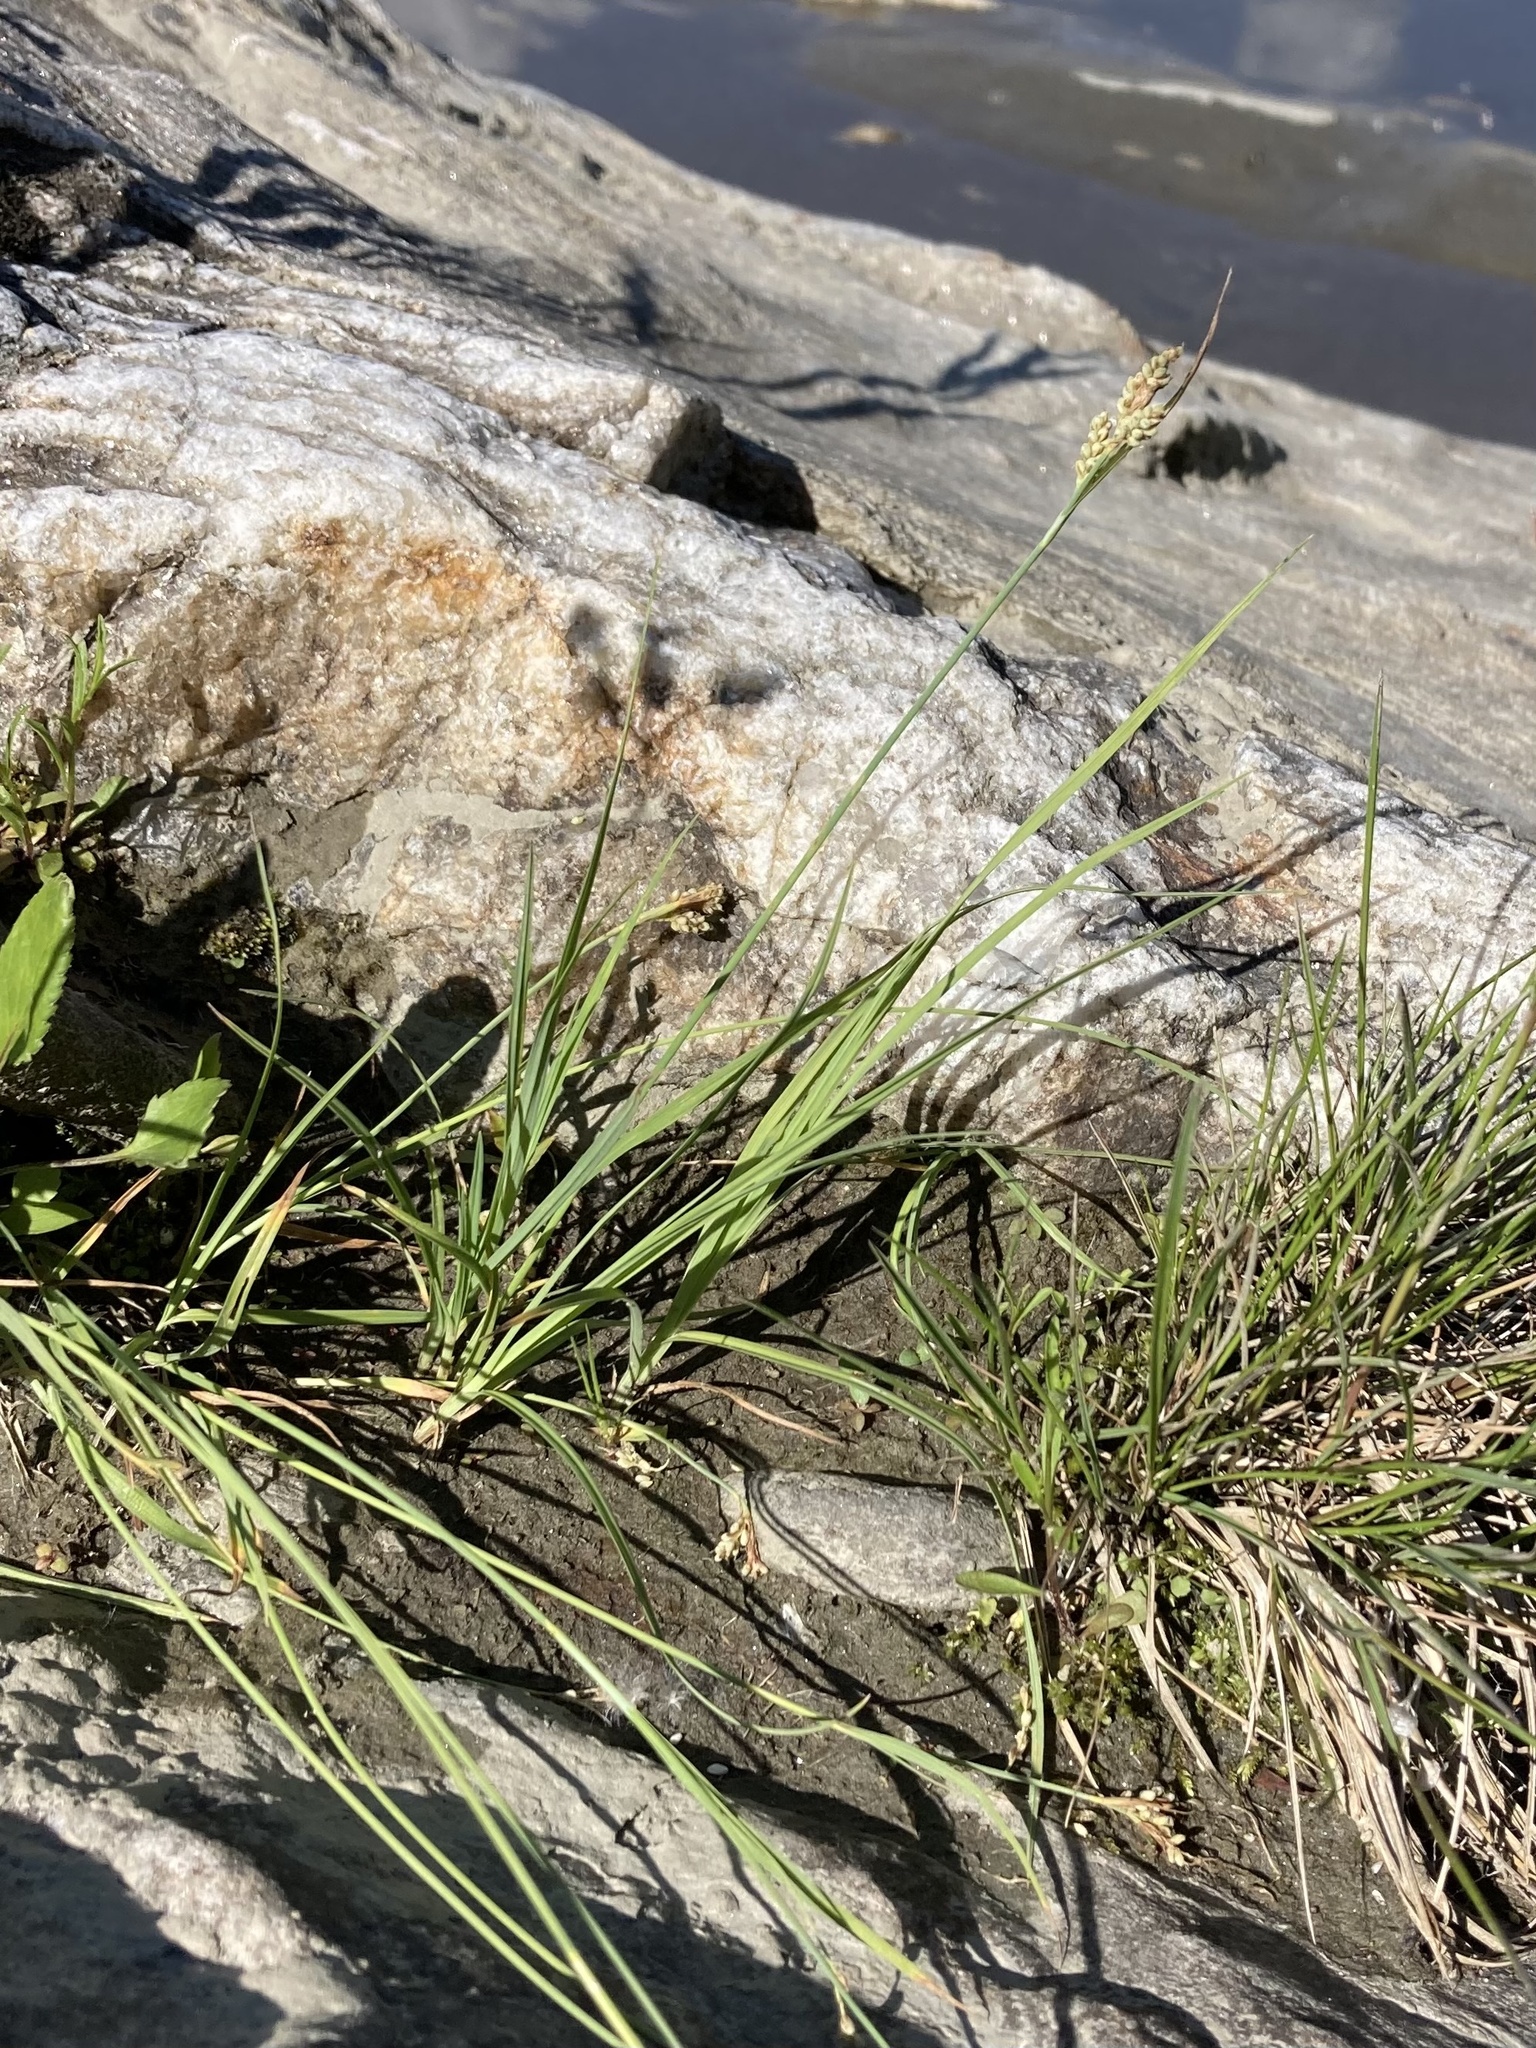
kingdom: Plantae
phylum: Tracheophyta
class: Liliopsida
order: Poales
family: Cyperaceae
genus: Carex
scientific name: Carex garberi
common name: Elk sedge
